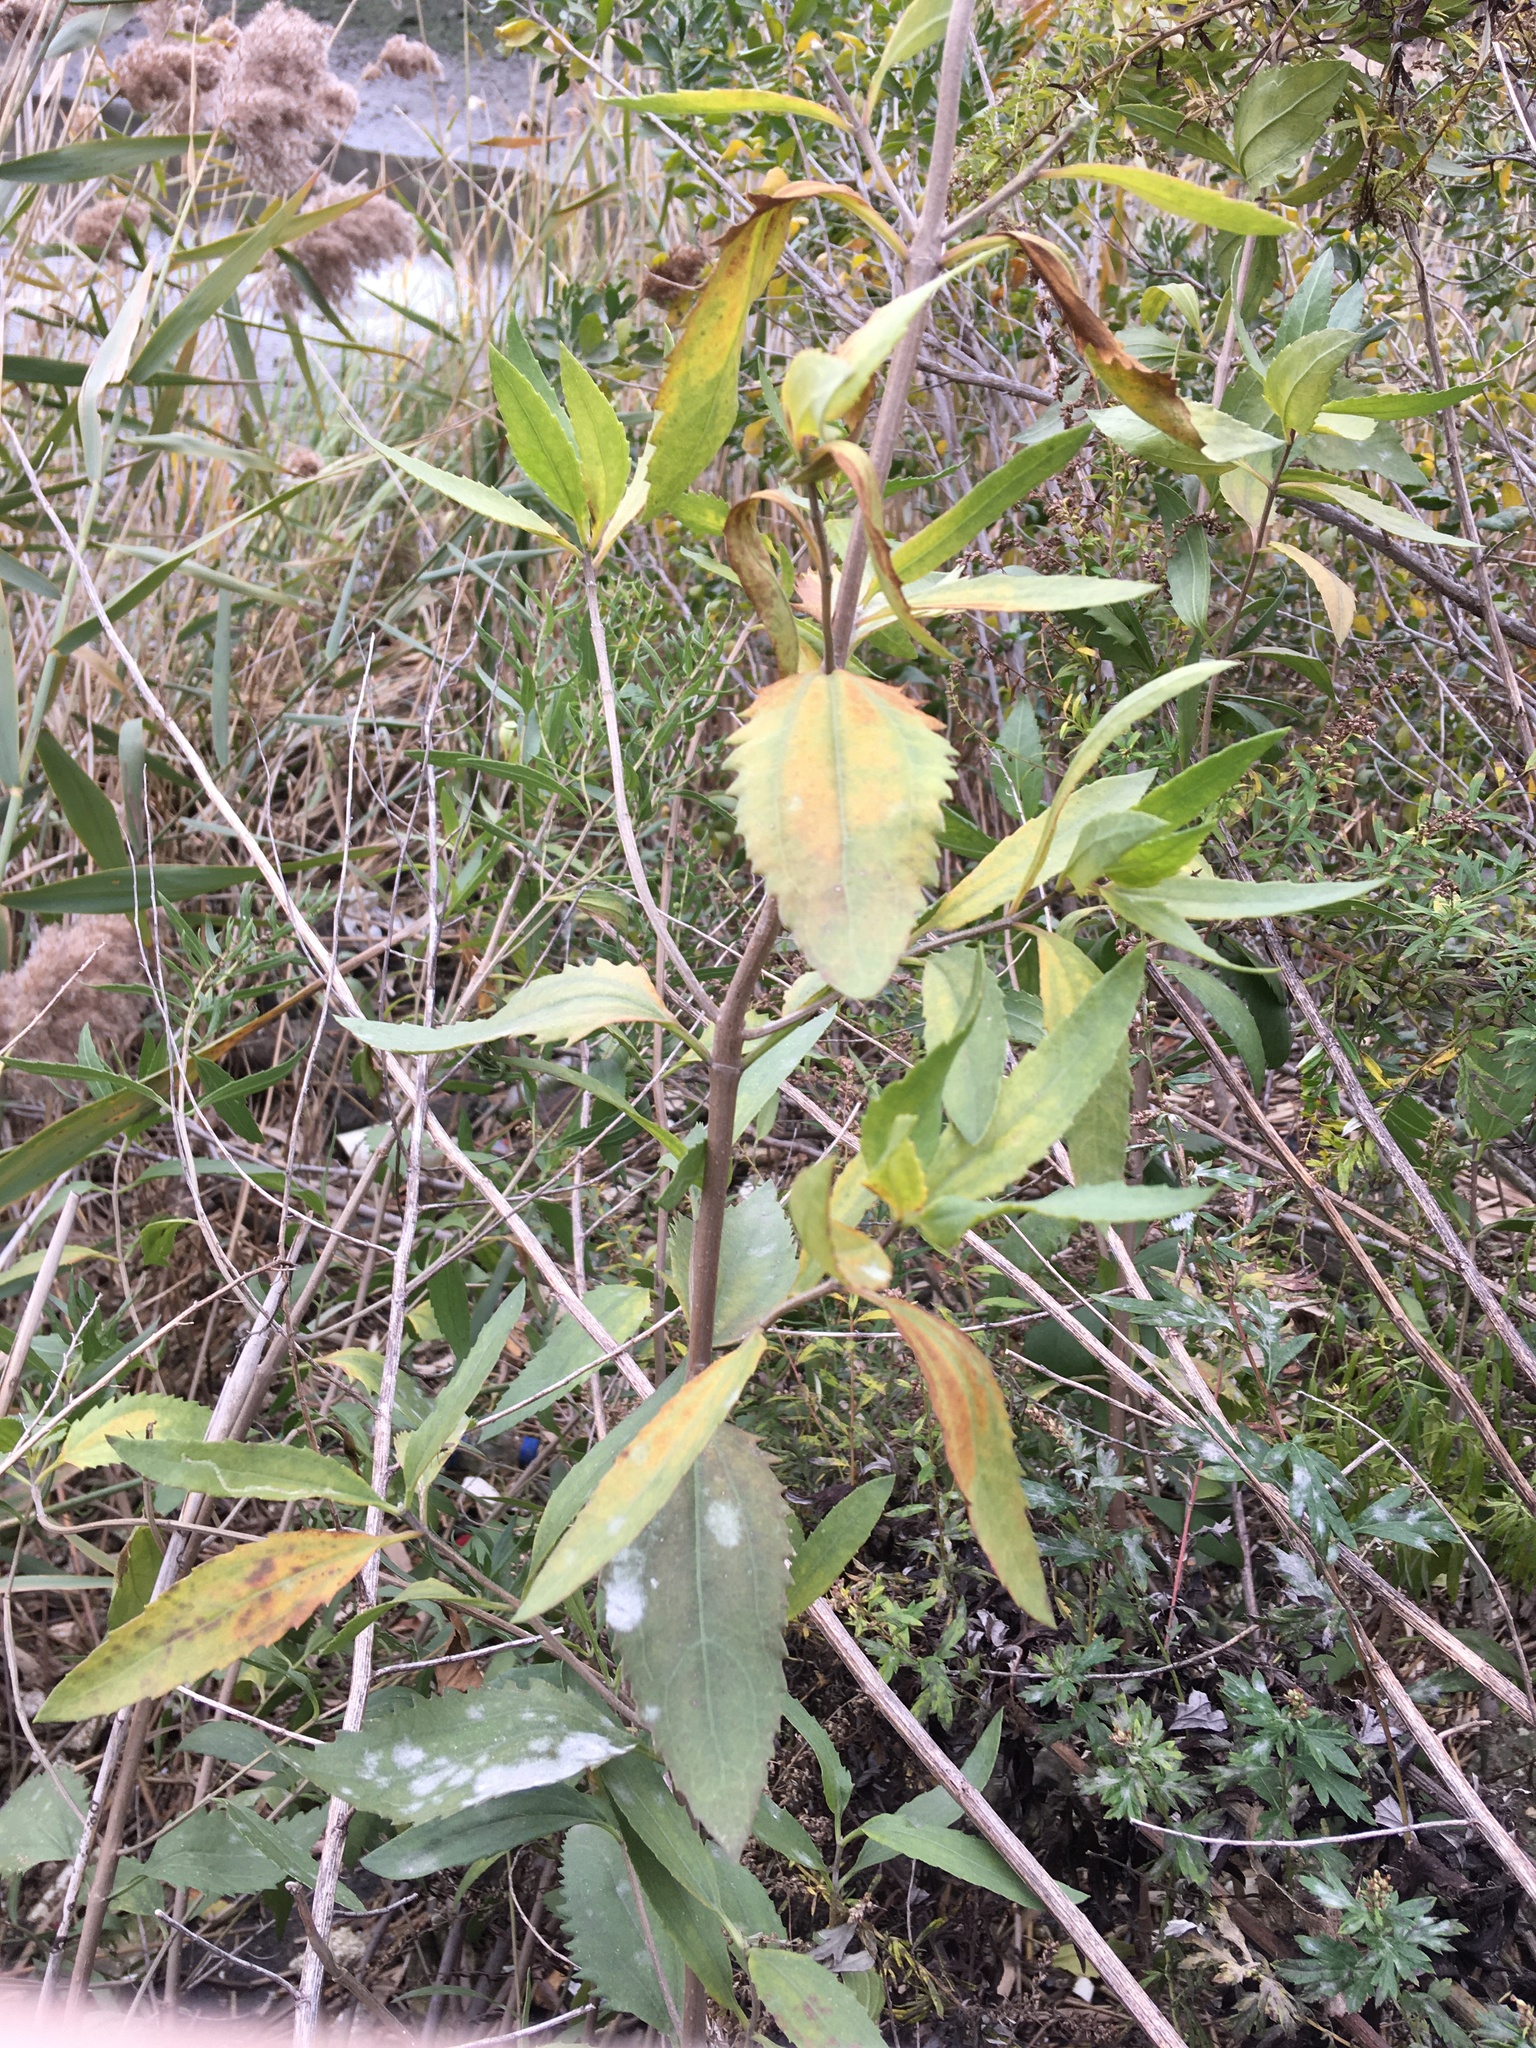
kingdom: Plantae
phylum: Tracheophyta
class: Magnoliopsida
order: Asterales
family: Asteraceae
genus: Iva
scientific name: Iva frutescens
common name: Big-leaved marsh-elder
